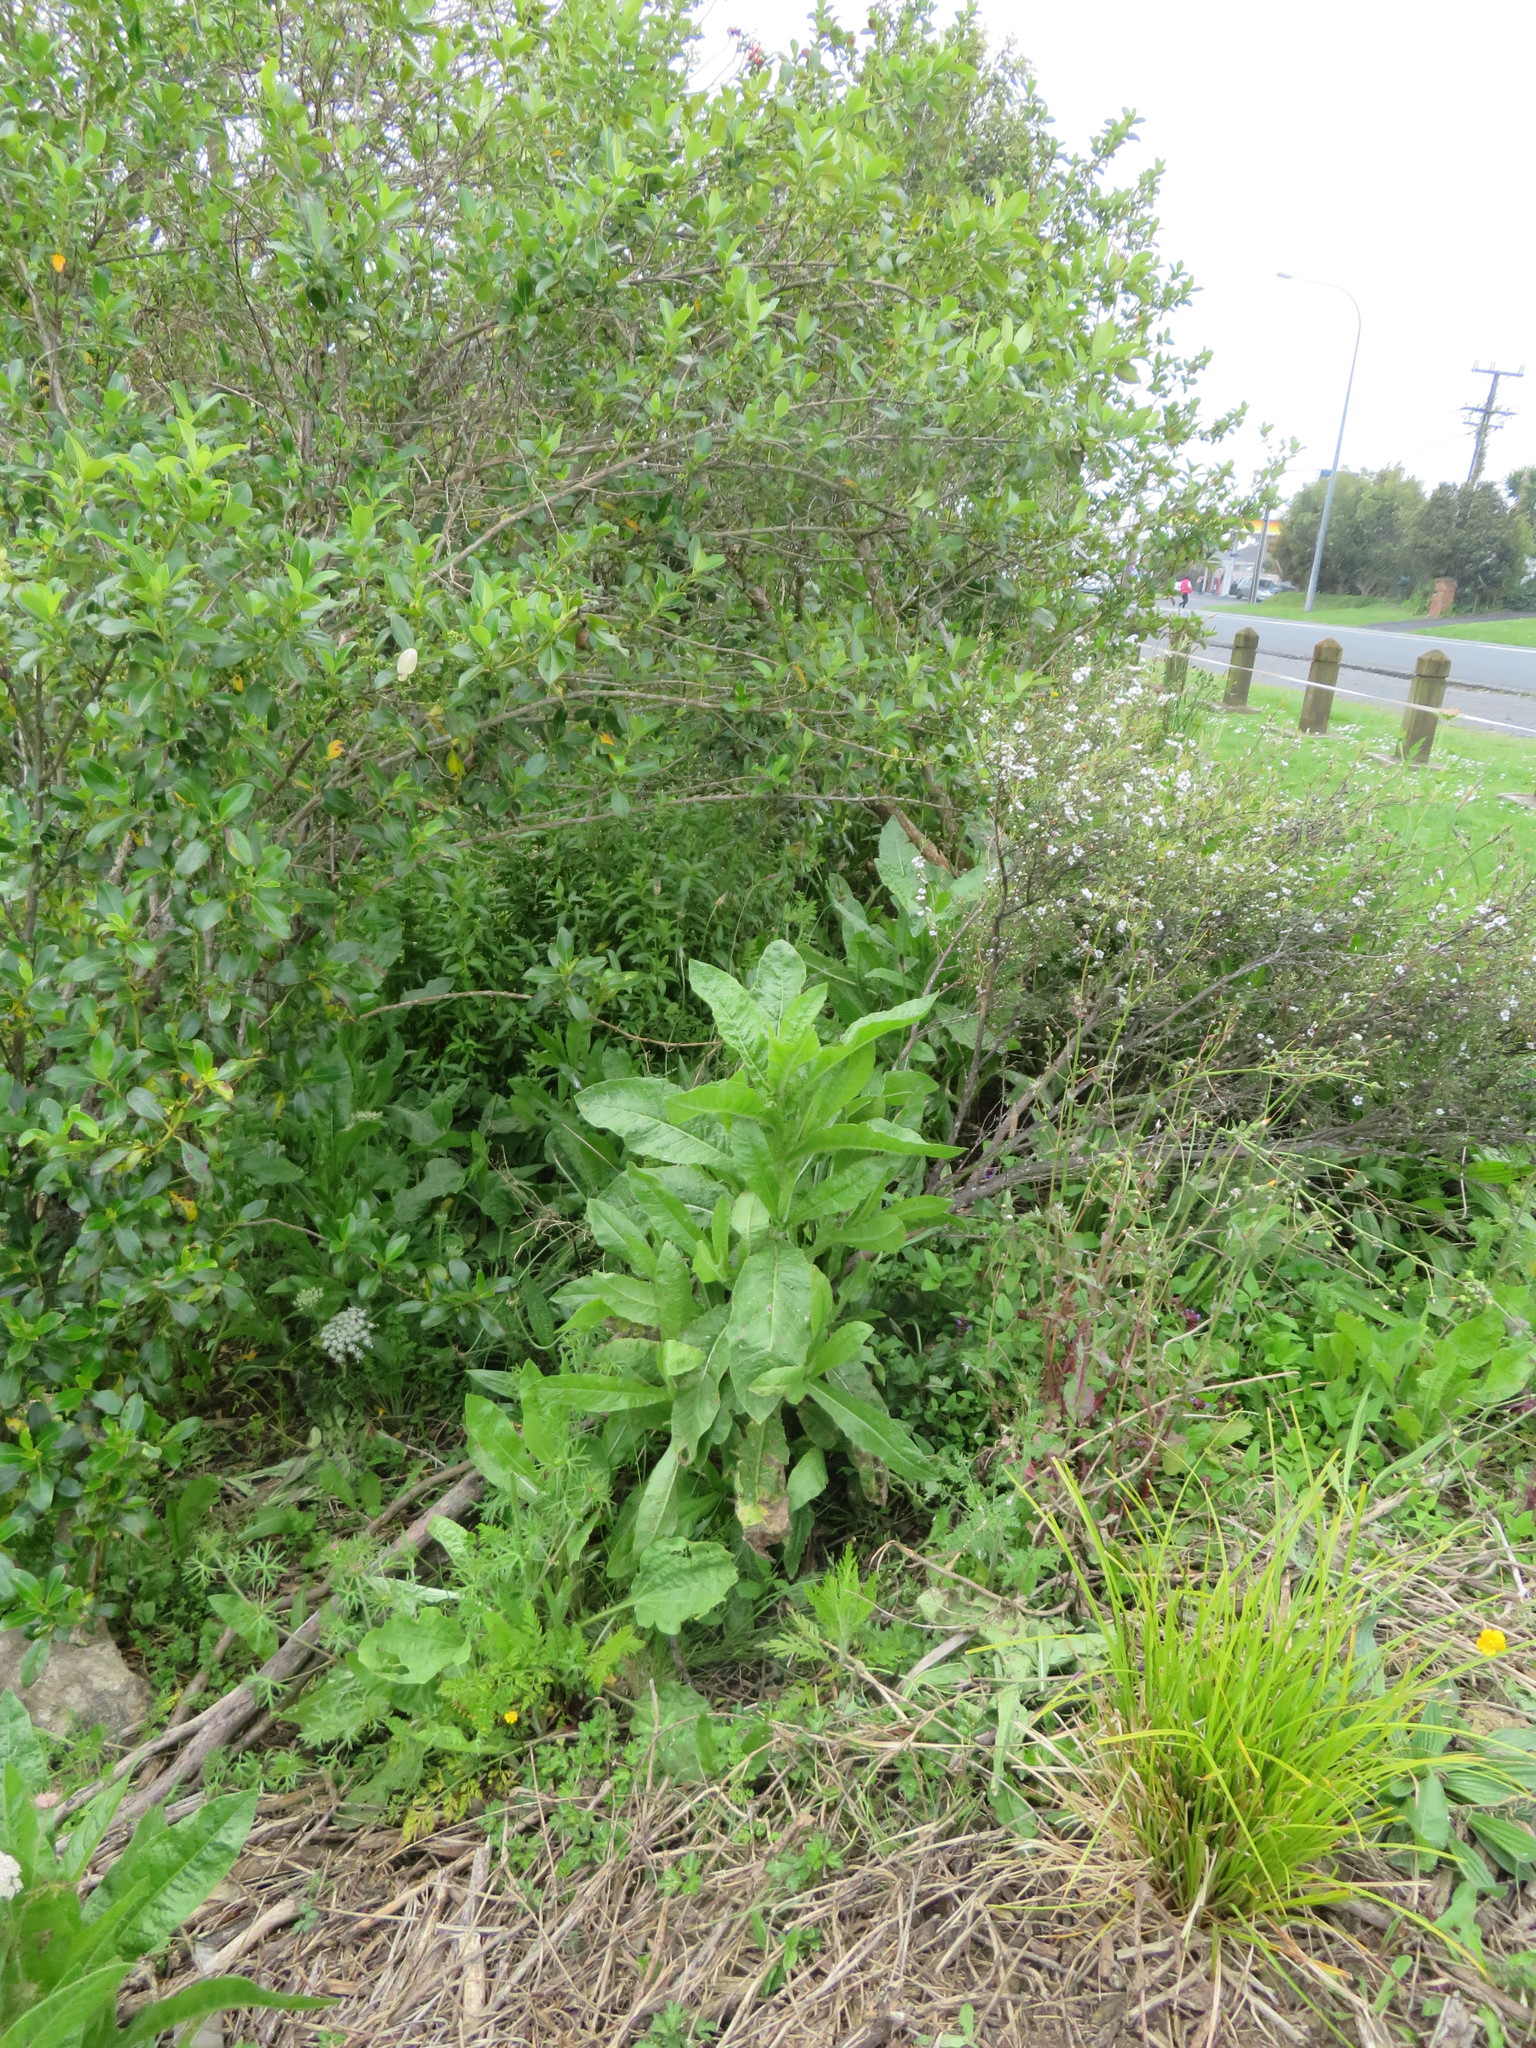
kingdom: Plantae
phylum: Tracheophyta
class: Magnoliopsida
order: Myrtales
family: Myrtaceae
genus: Leptospermum
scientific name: Leptospermum scoparium
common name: Broom tea-tree
